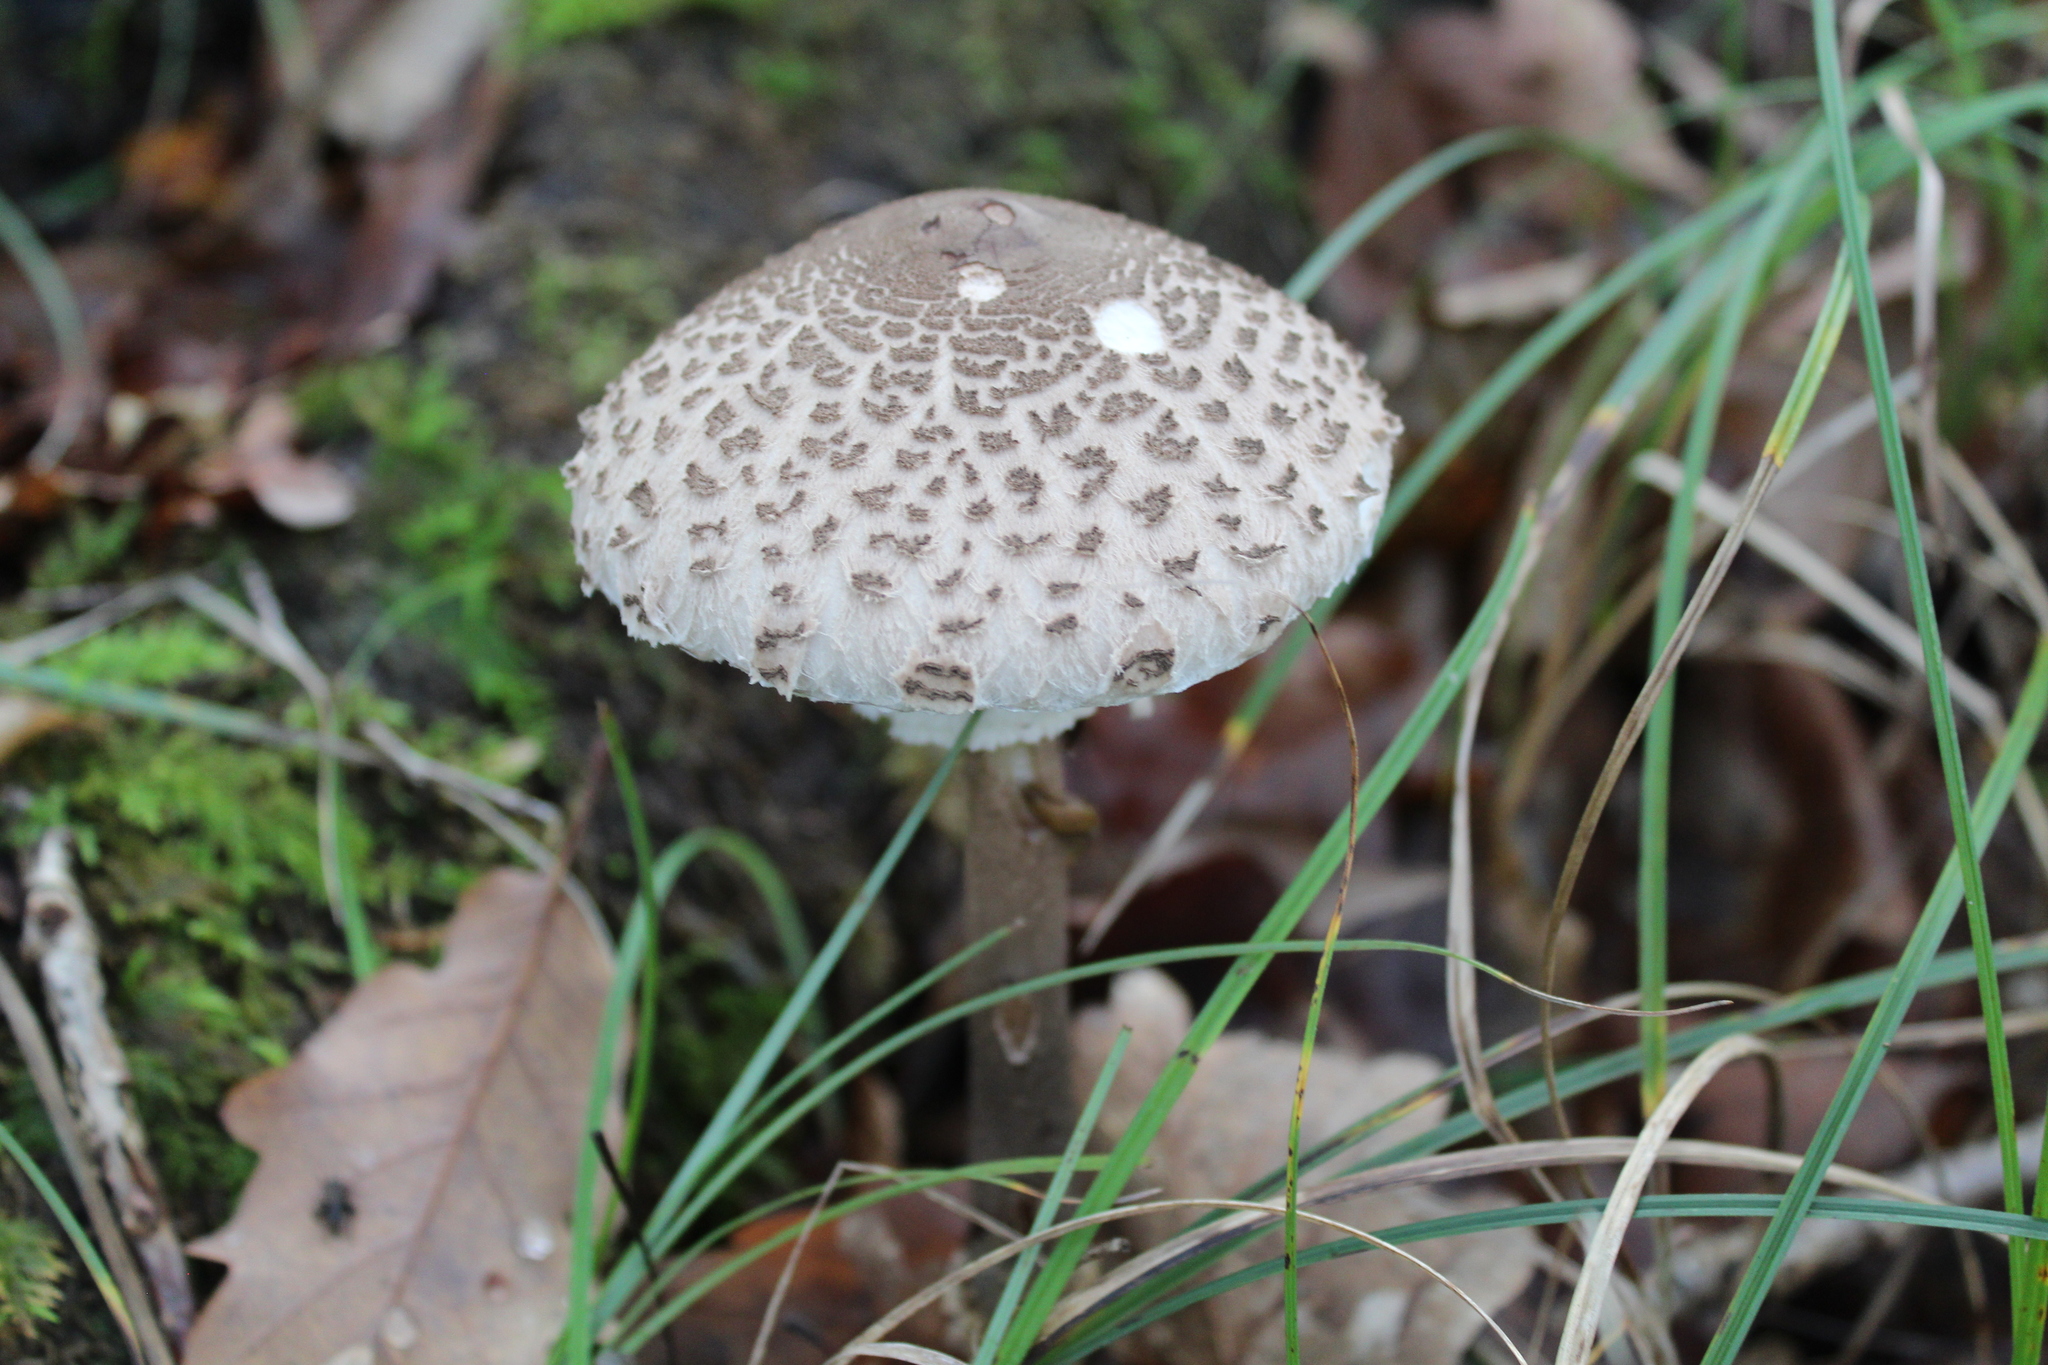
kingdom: Fungi
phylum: Basidiomycota
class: Agaricomycetes
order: Agaricales
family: Agaricaceae
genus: Macrolepiota
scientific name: Macrolepiota procera
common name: Parasol
